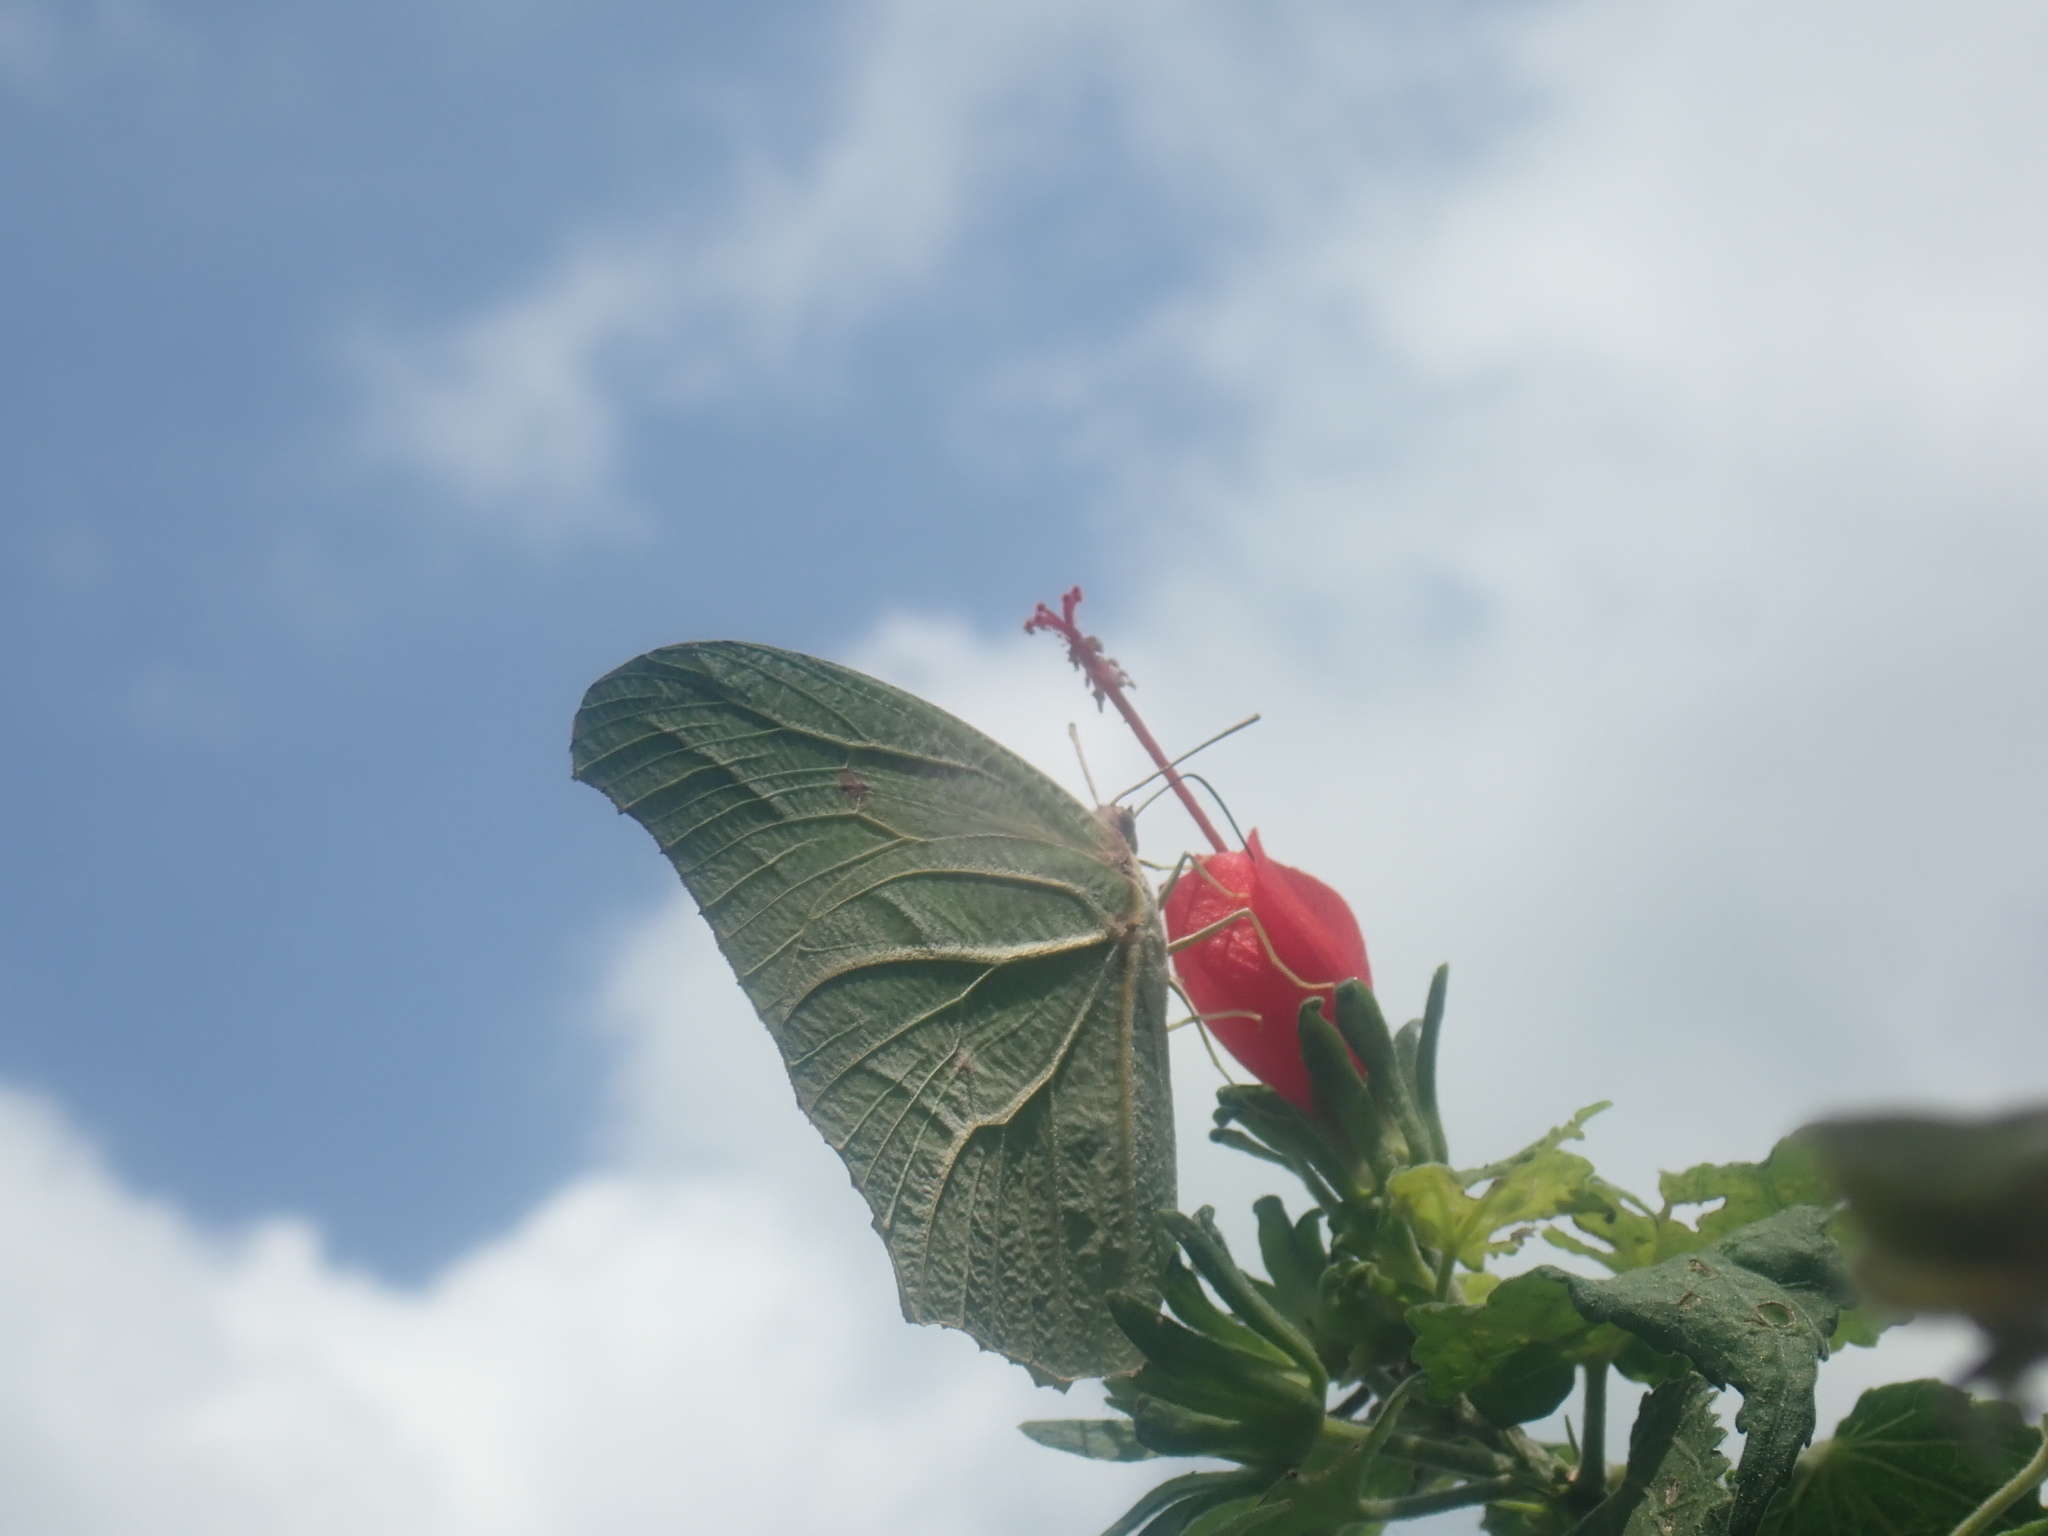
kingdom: Animalia
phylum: Arthropoda
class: Insecta
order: Lepidoptera
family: Pieridae
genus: Anteos
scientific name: Anteos clorinde
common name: White angled sulphur
